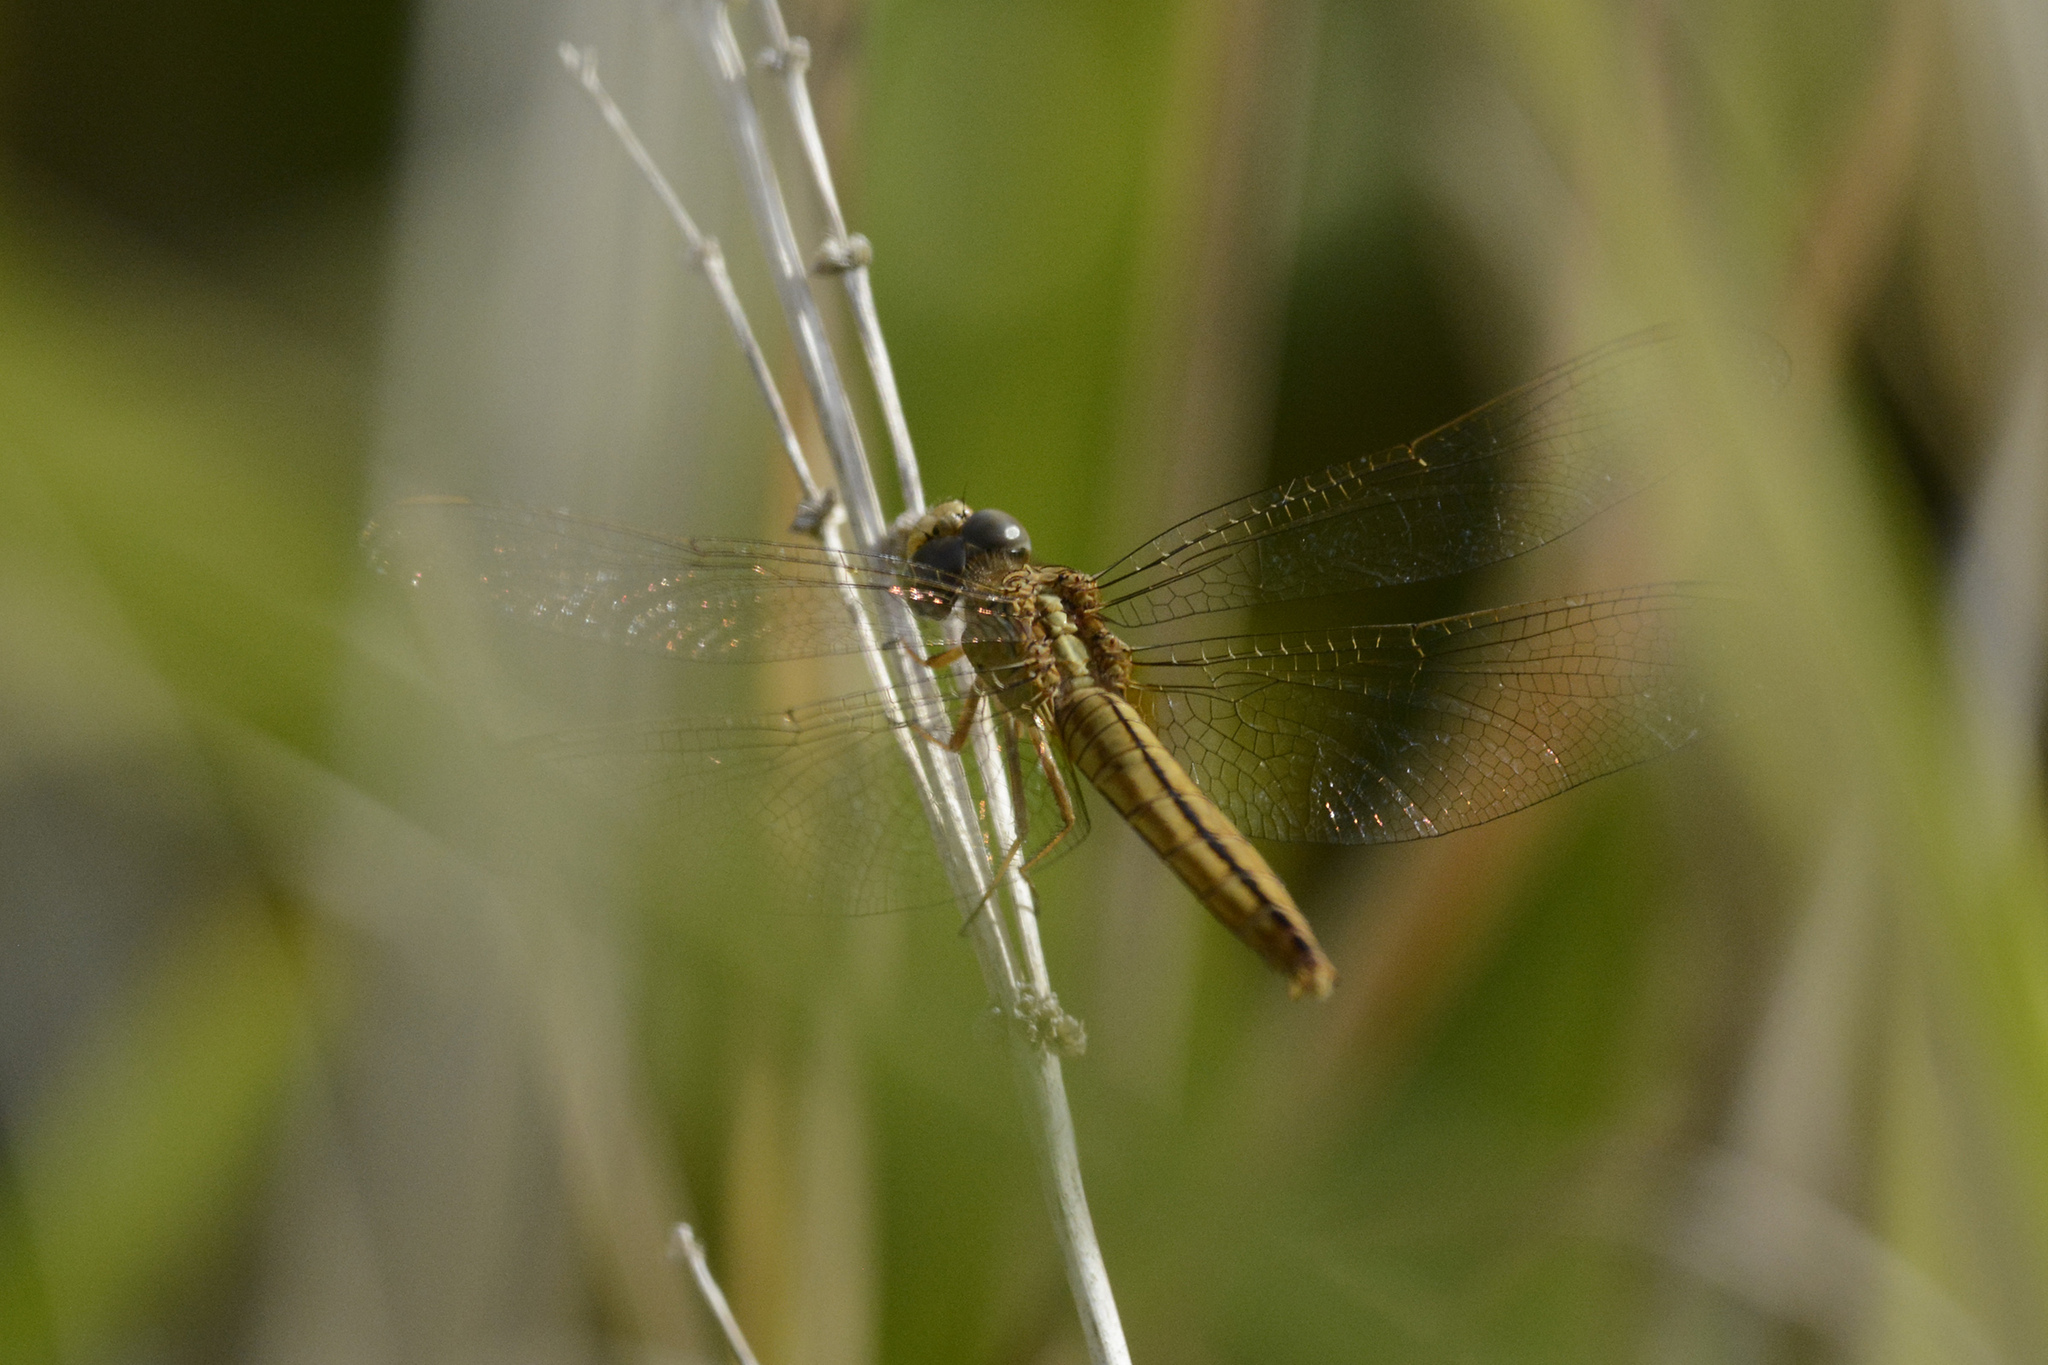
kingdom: Animalia
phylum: Arthropoda
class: Insecta
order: Odonata
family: Libellulidae
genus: Crocothemis
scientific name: Crocothemis nigrifrons
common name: Black-headed skimmer
